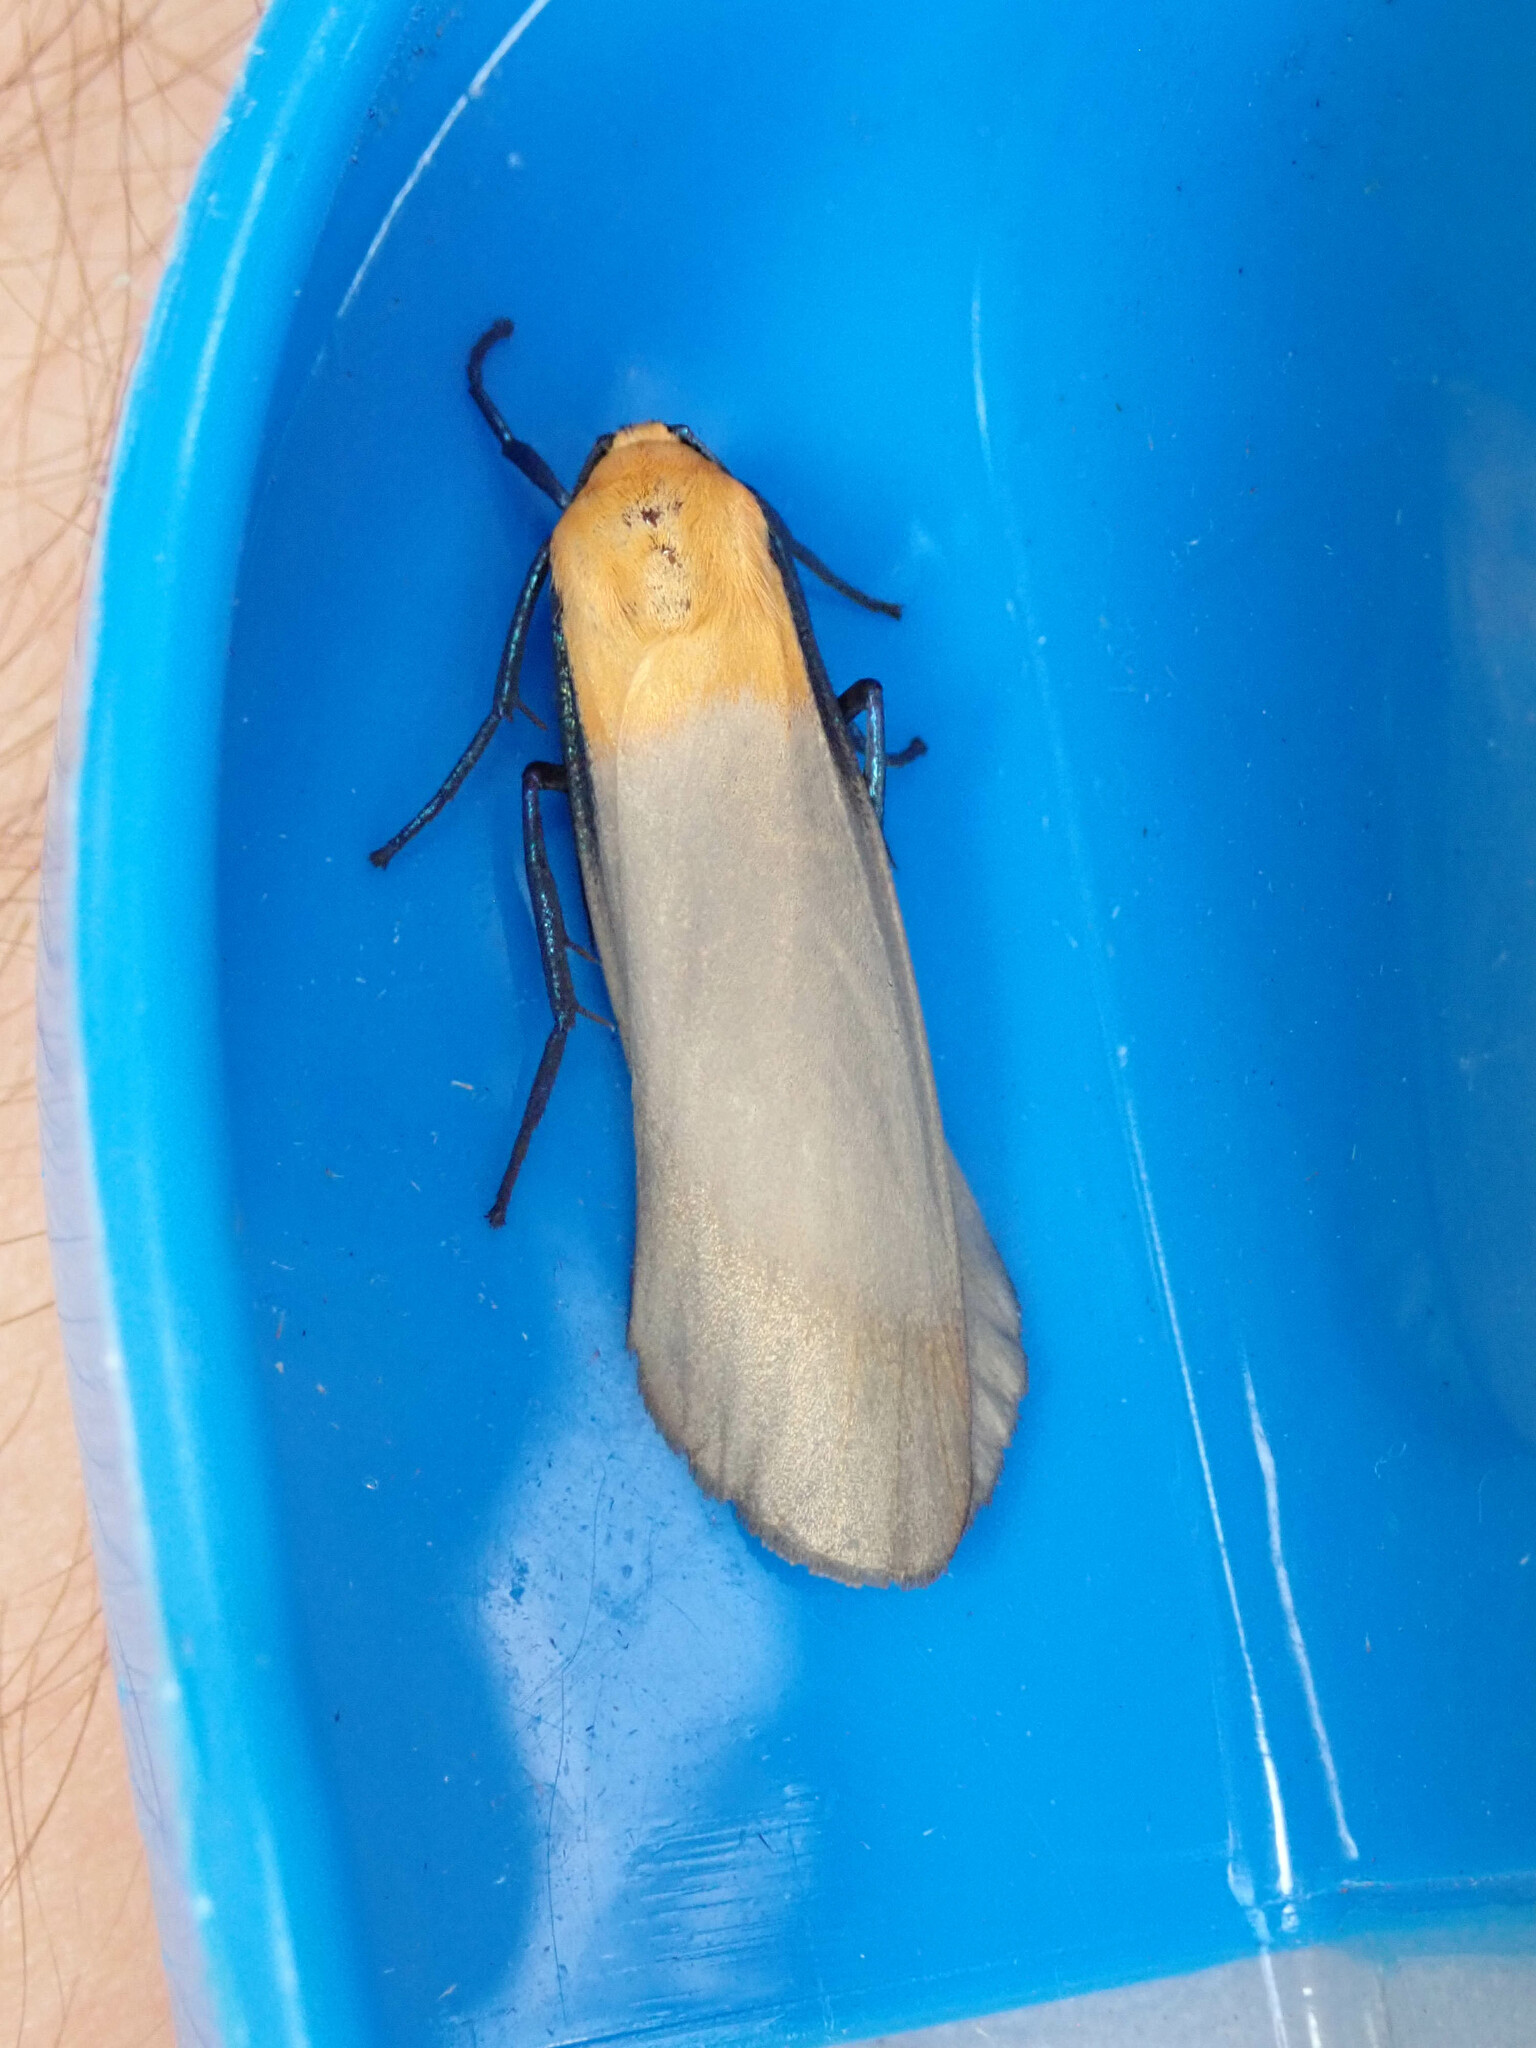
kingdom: Animalia
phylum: Arthropoda
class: Insecta
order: Lepidoptera
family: Erebidae
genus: Lithosia
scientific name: Lithosia quadra
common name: Four-spotted footman
